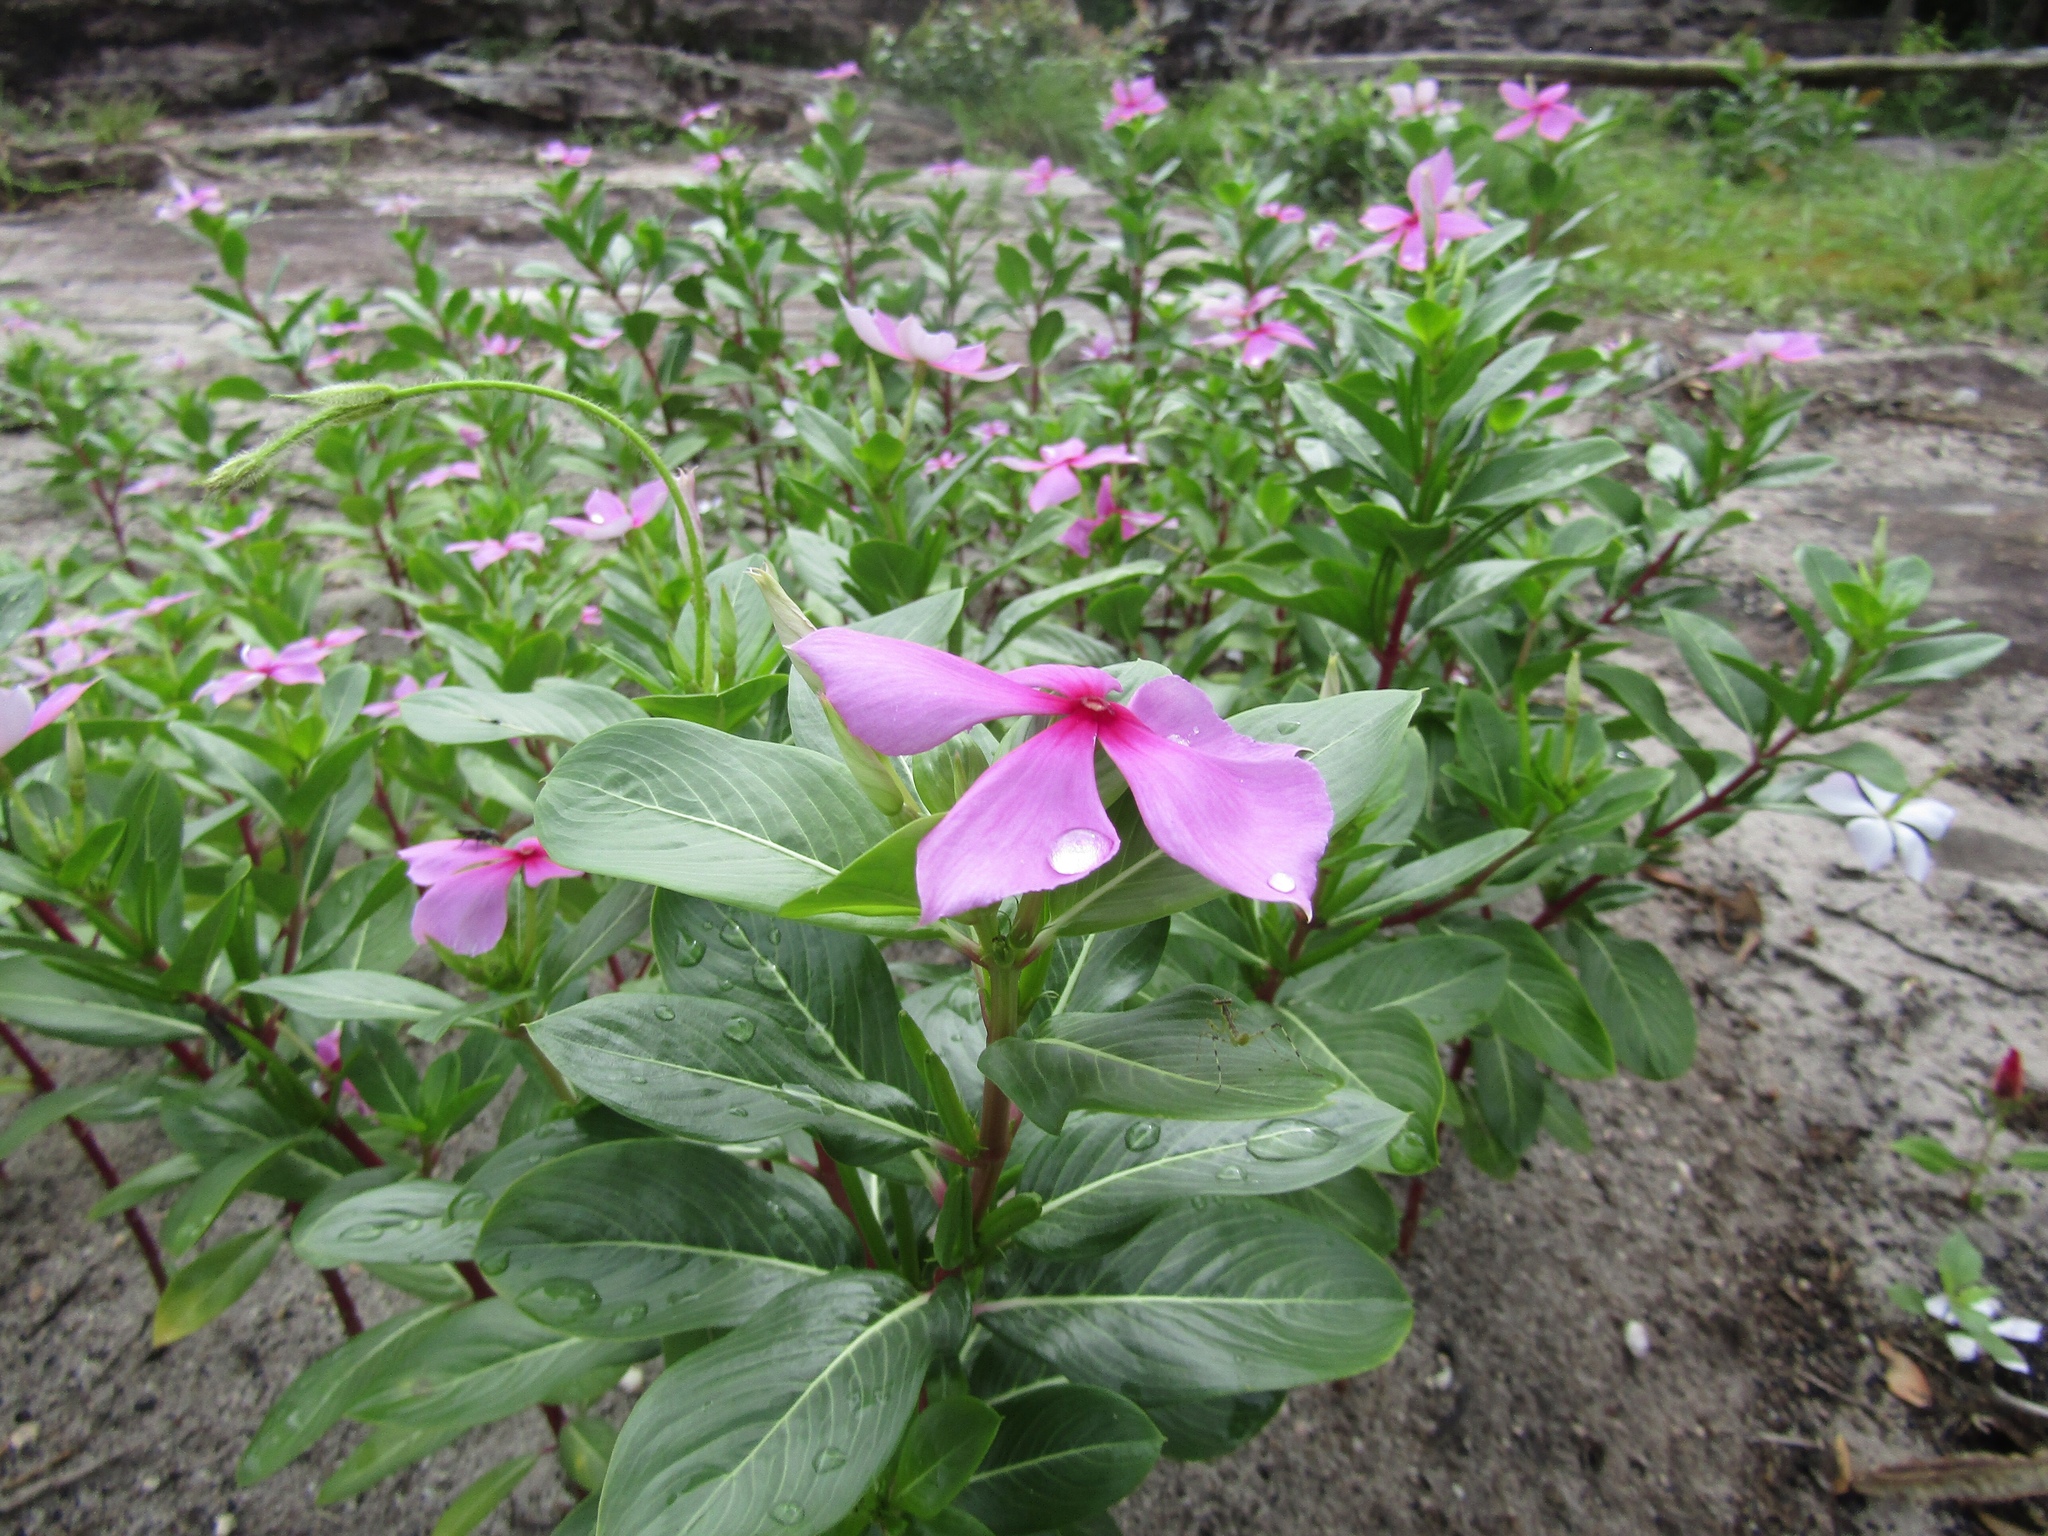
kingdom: Plantae
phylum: Tracheophyta
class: Magnoliopsida
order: Gentianales
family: Apocynaceae
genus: Catharanthus
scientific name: Catharanthus roseus
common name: Madagascar periwinkle
